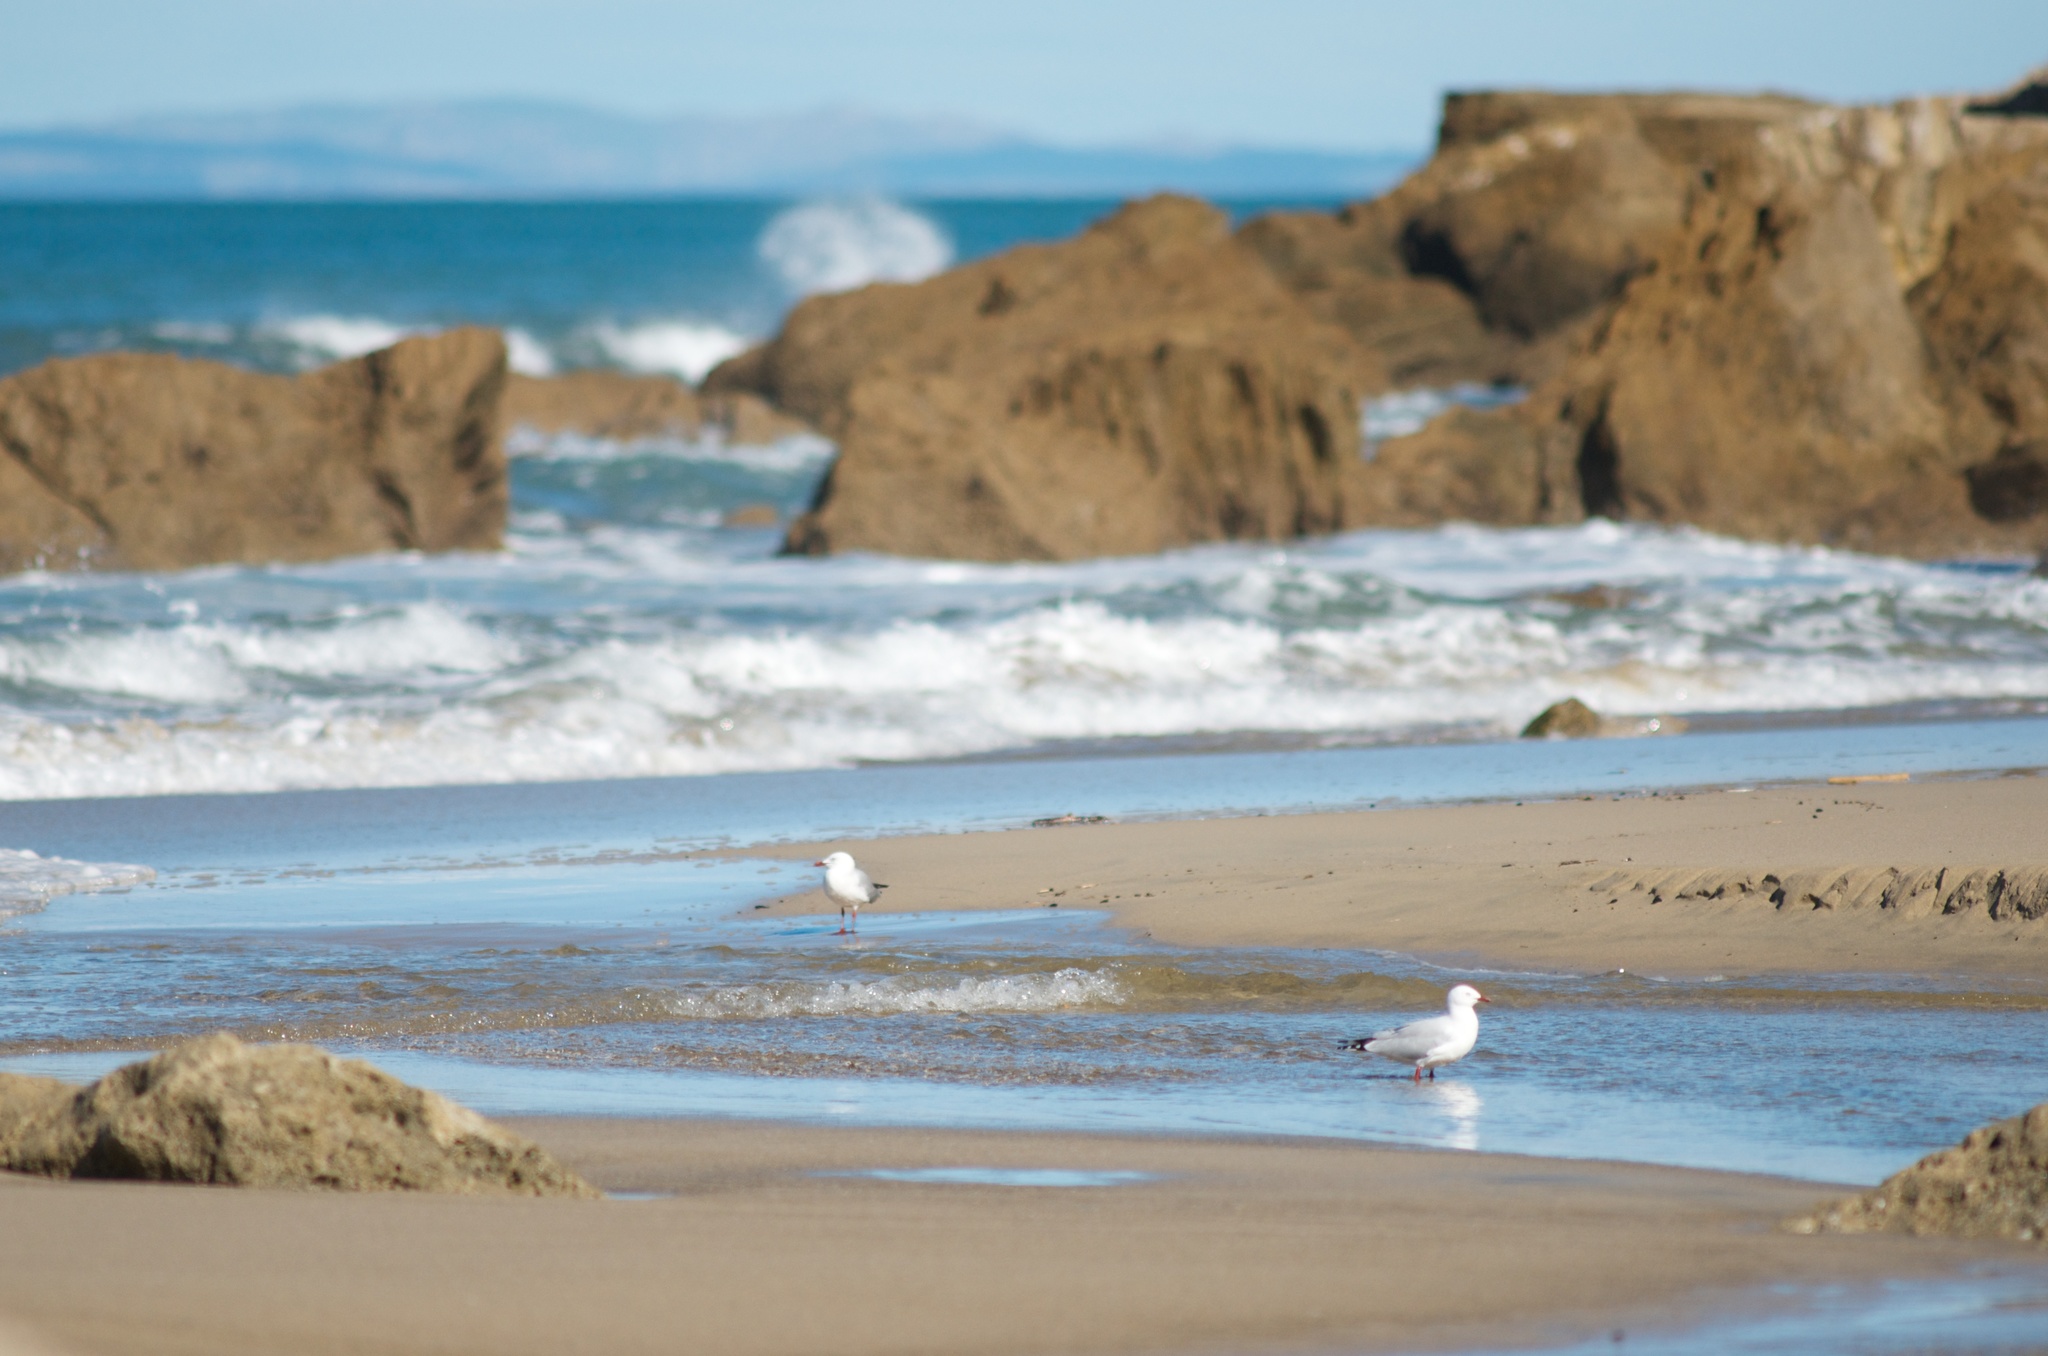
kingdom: Animalia
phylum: Chordata
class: Aves
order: Charadriiformes
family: Laridae
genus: Chroicocephalus
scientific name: Chroicocephalus novaehollandiae
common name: Silver gull
